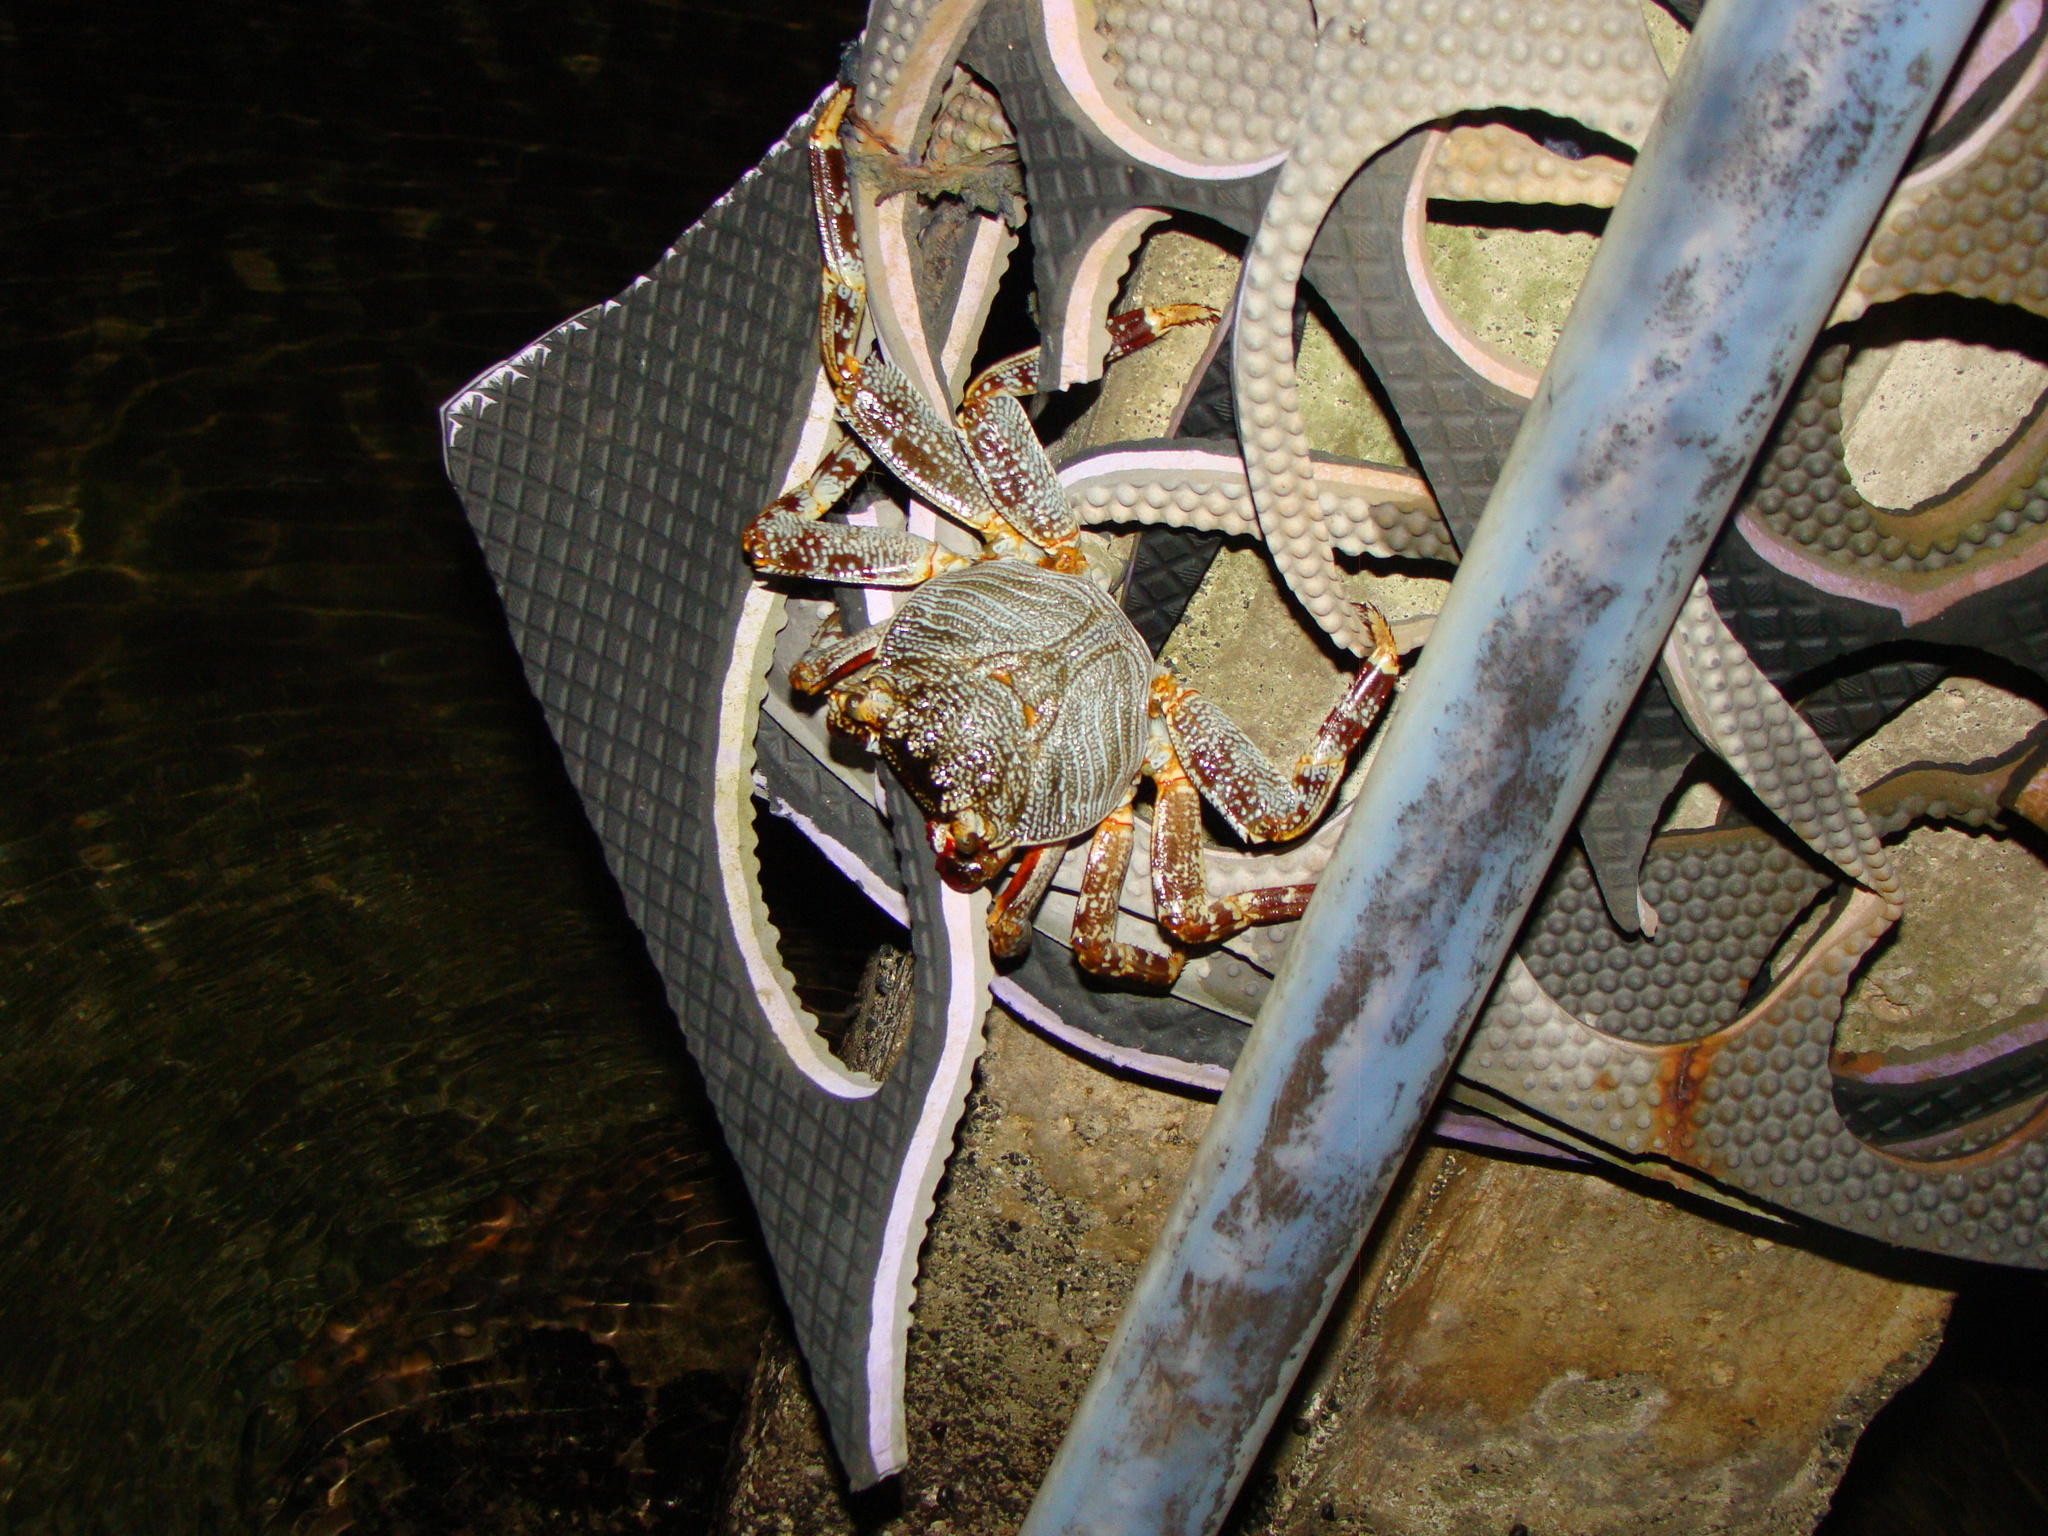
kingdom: Animalia
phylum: Arthropoda
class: Malacostraca
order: Decapoda
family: Grapsidae
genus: Grapsus
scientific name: Grapsus tenuicrustatus
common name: Natal lightfoot crab
